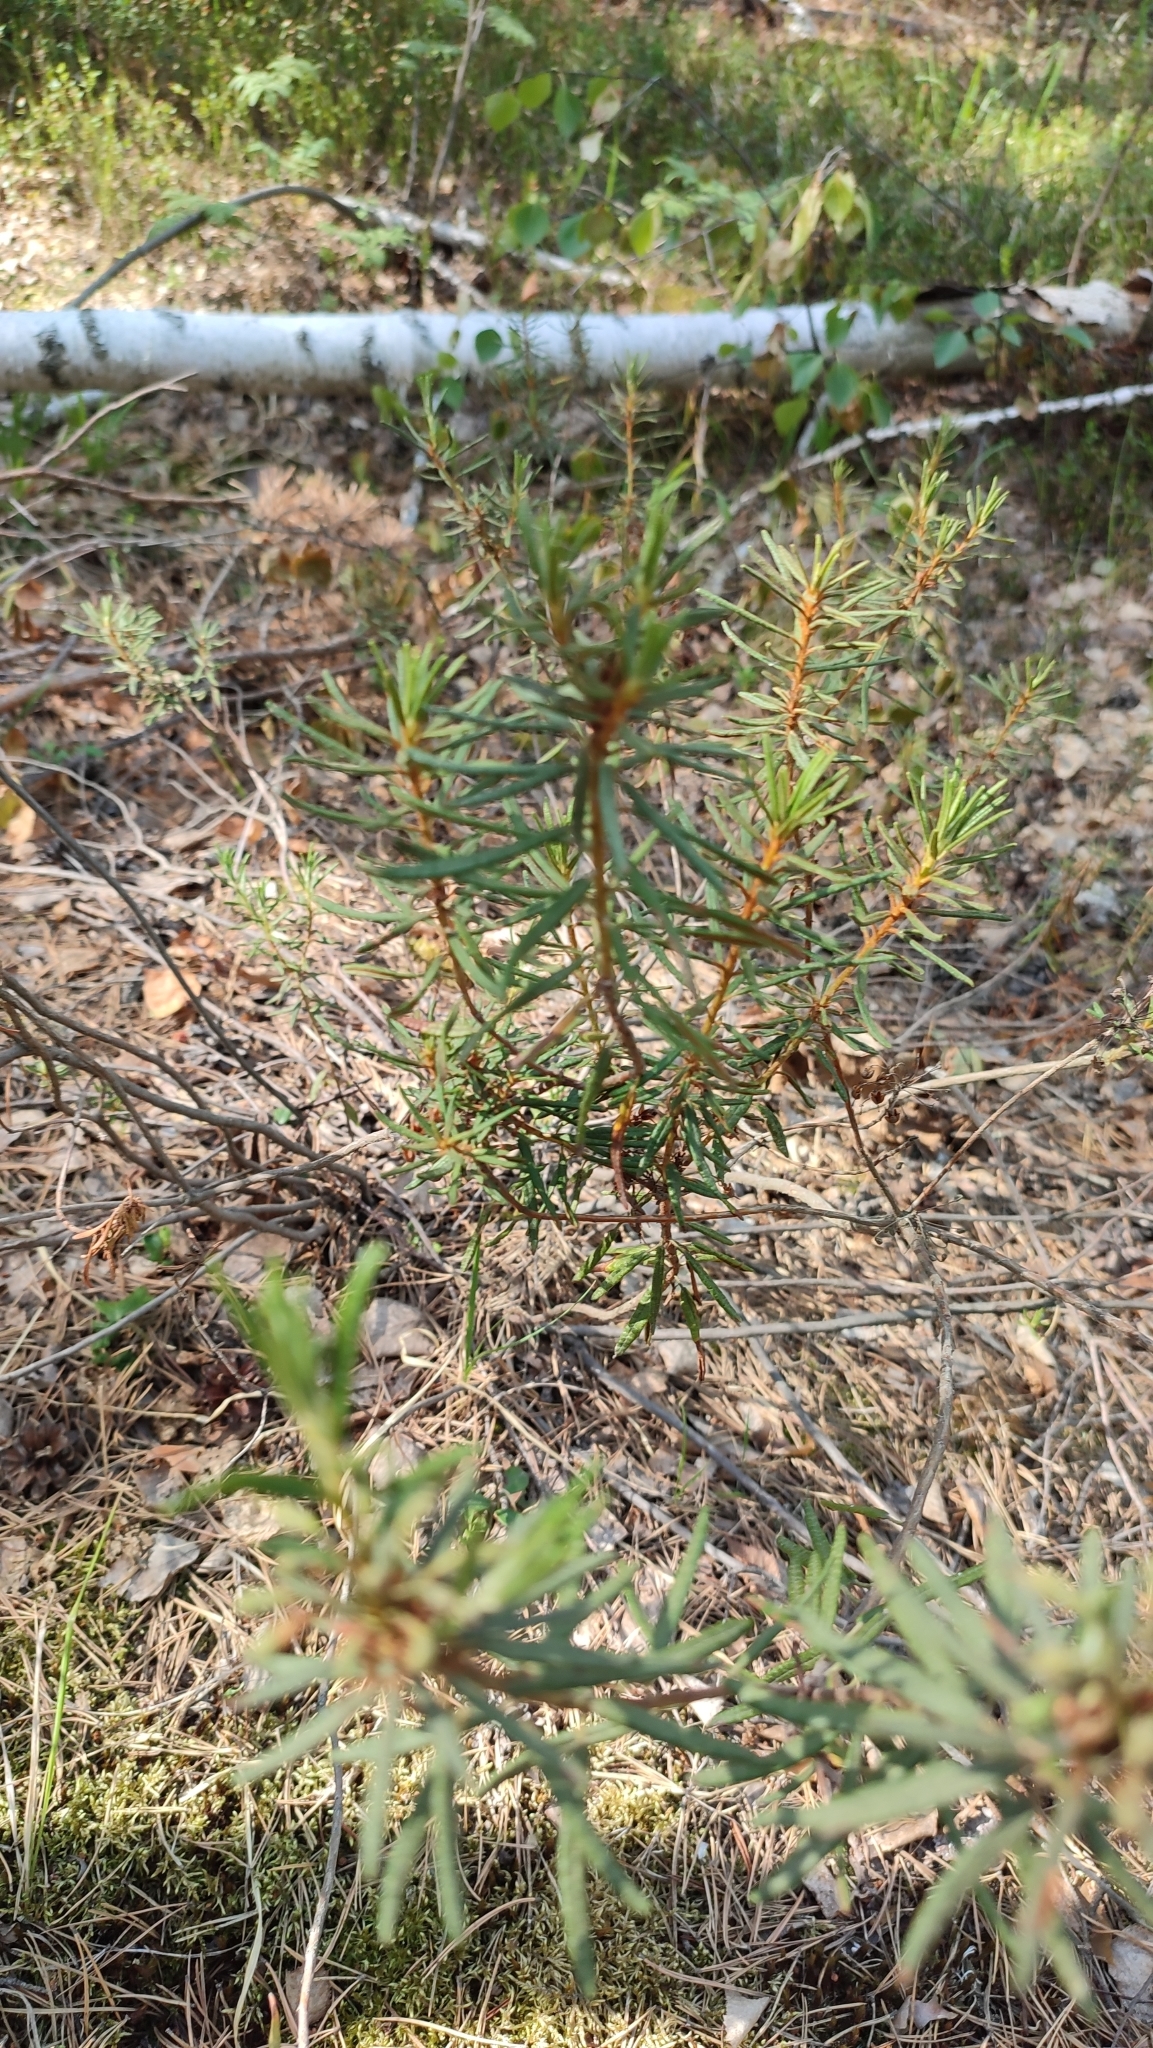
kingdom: Plantae
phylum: Tracheophyta
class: Magnoliopsida
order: Ericales
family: Ericaceae
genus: Rhododendron
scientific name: Rhododendron tomentosum
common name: Marsh labrador tea
